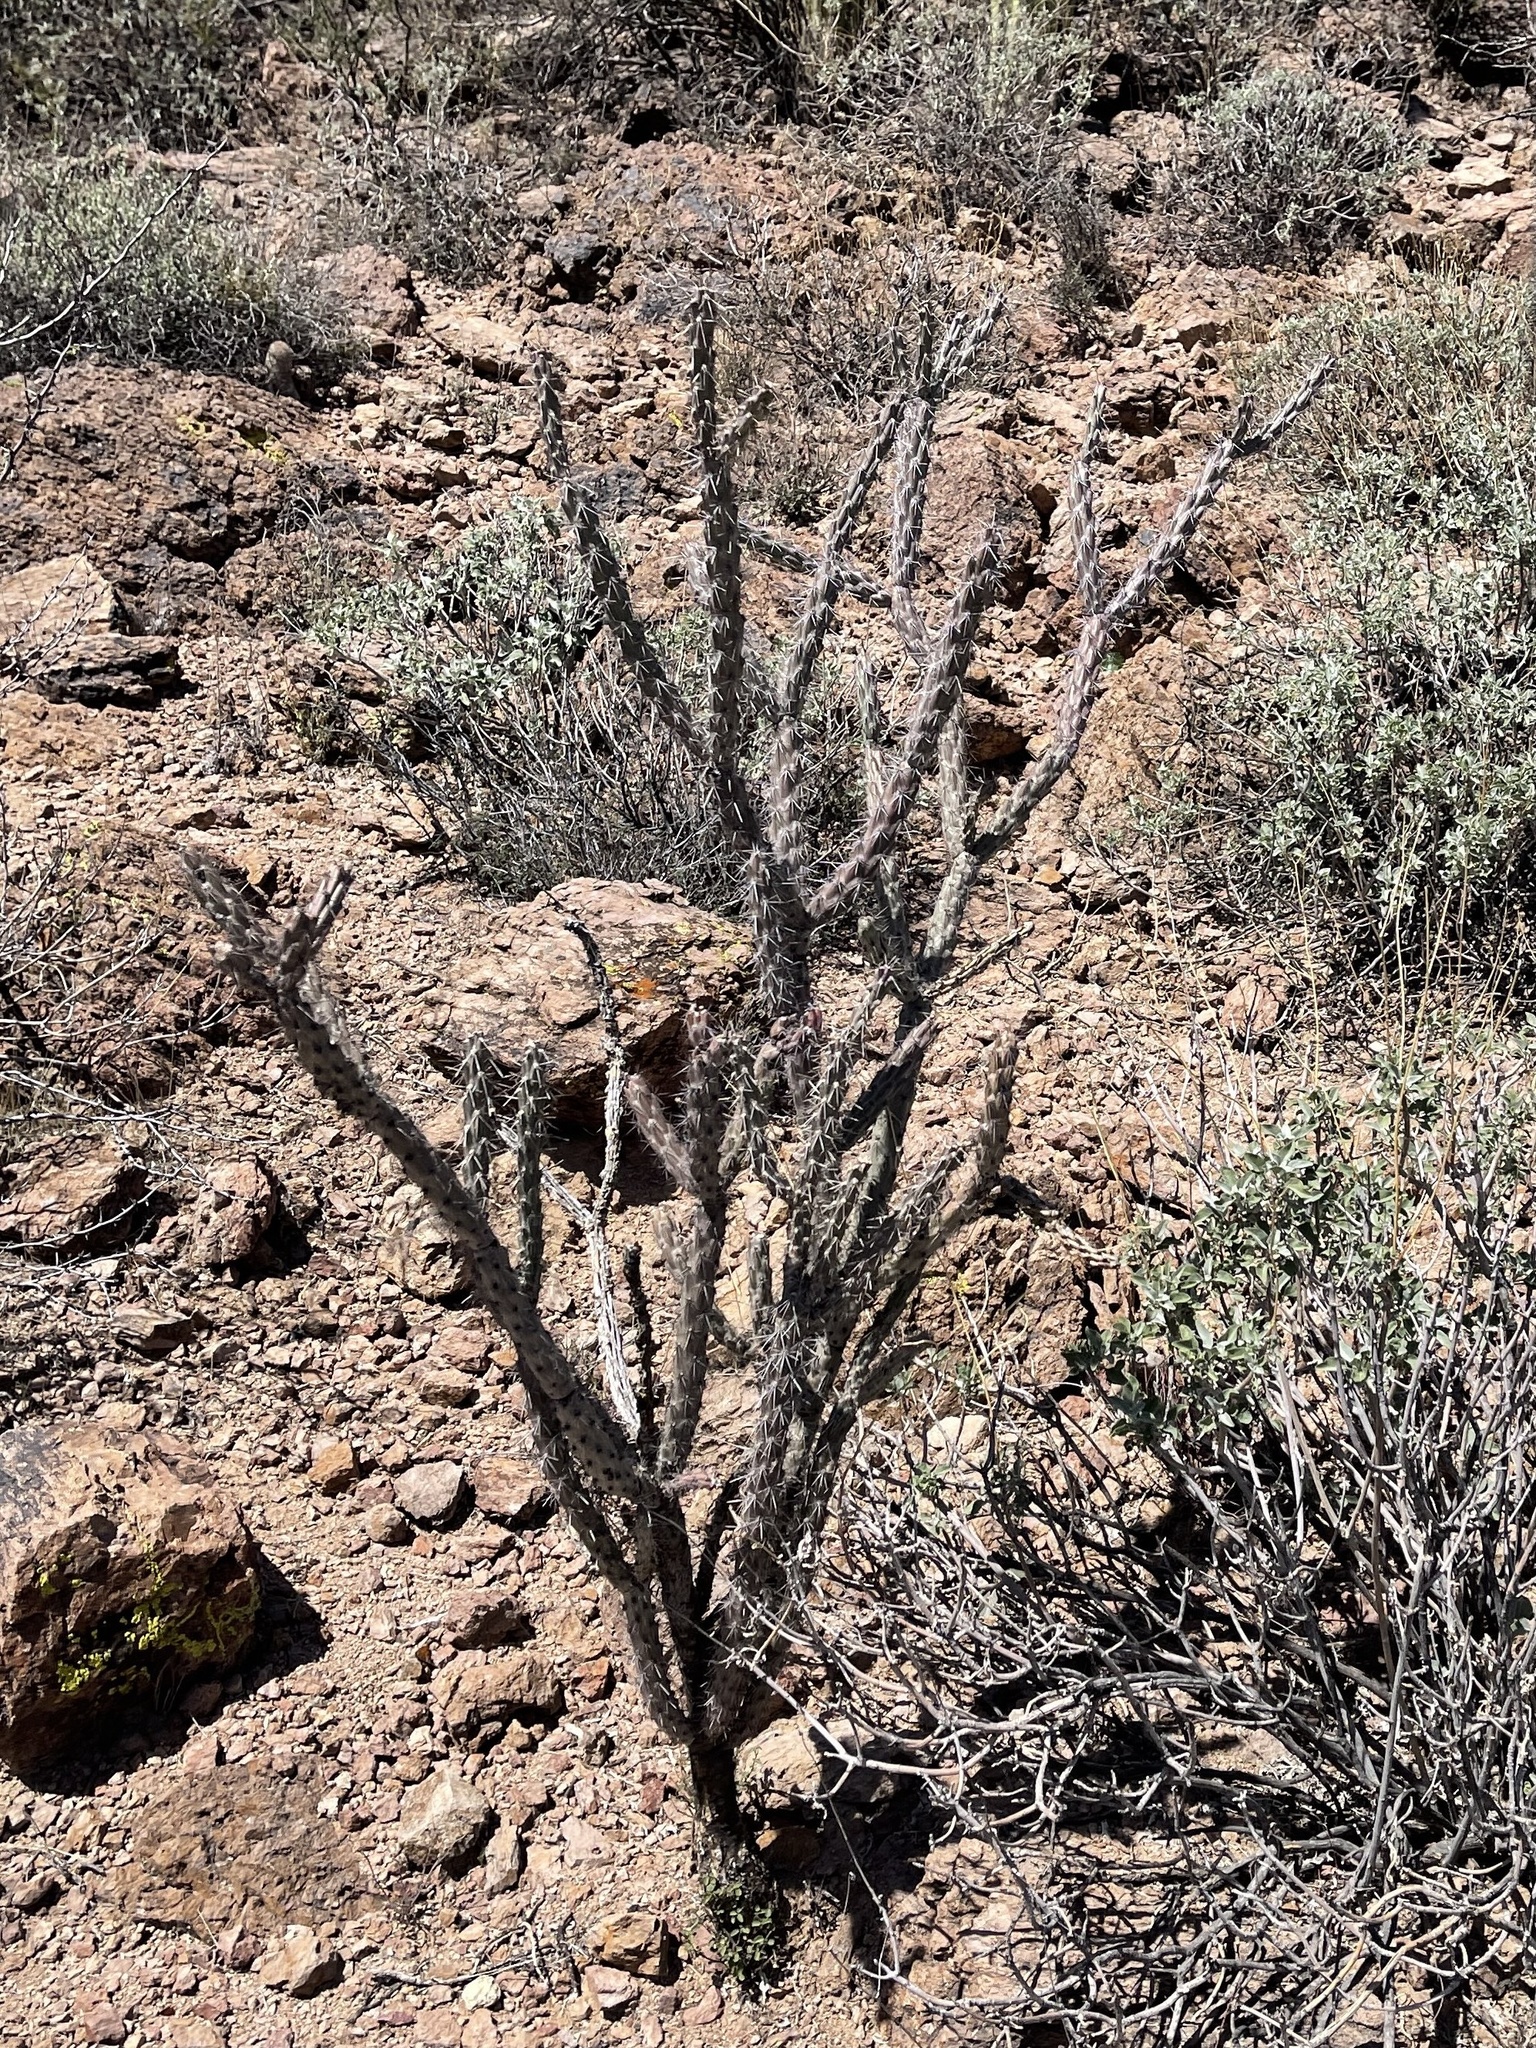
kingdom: Plantae
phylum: Tracheophyta
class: Magnoliopsida
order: Caryophyllales
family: Cactaceae
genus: Cylindropuntia
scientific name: Cylindropuntia acanthocarpa
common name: Buckhorn cholla
